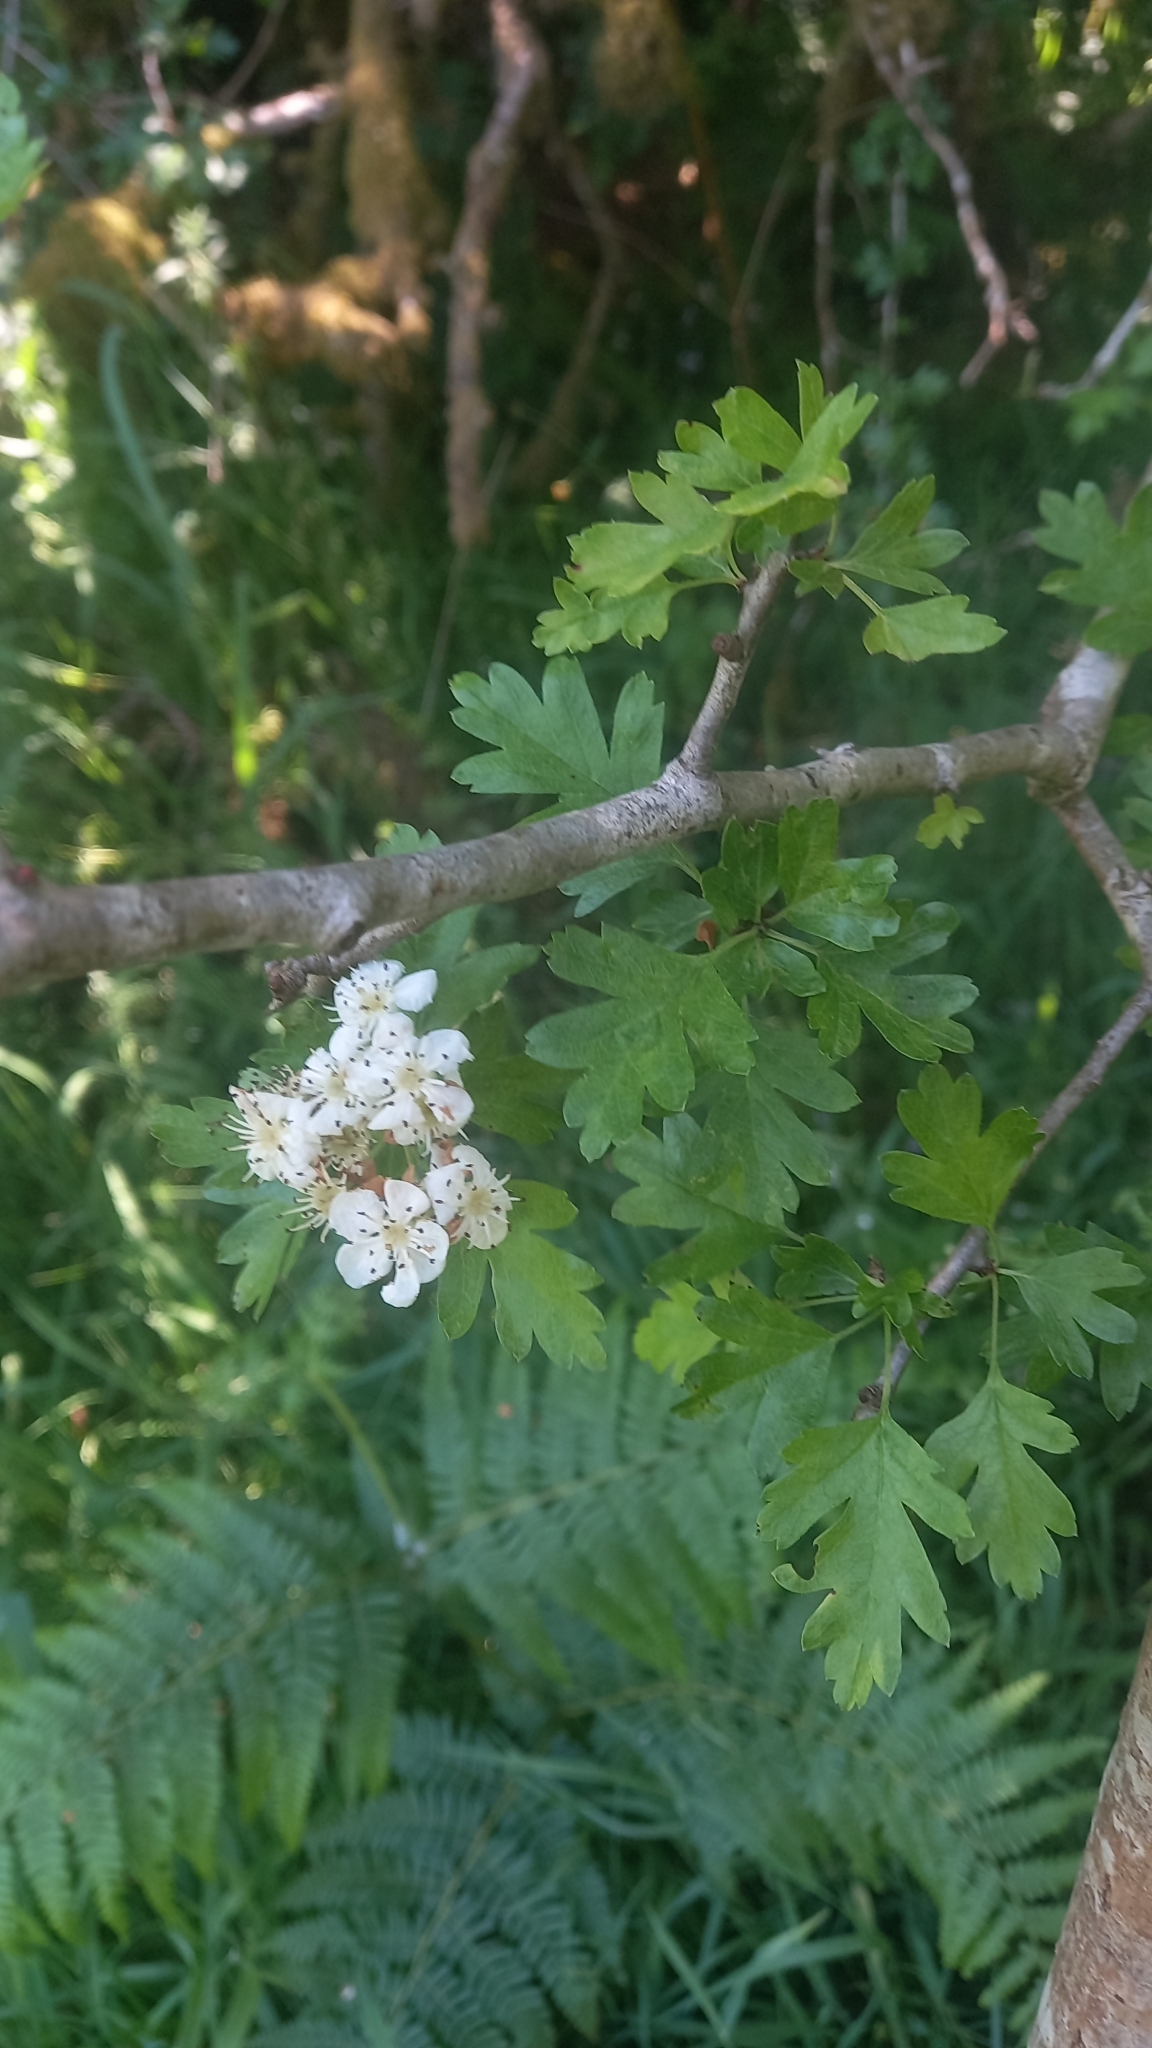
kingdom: Plantae
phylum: Tracheophyta
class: Magnoliopsida
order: Rosales
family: Rosaceae
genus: Crataegus
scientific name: Crataegus monogyna
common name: Hawthorn
